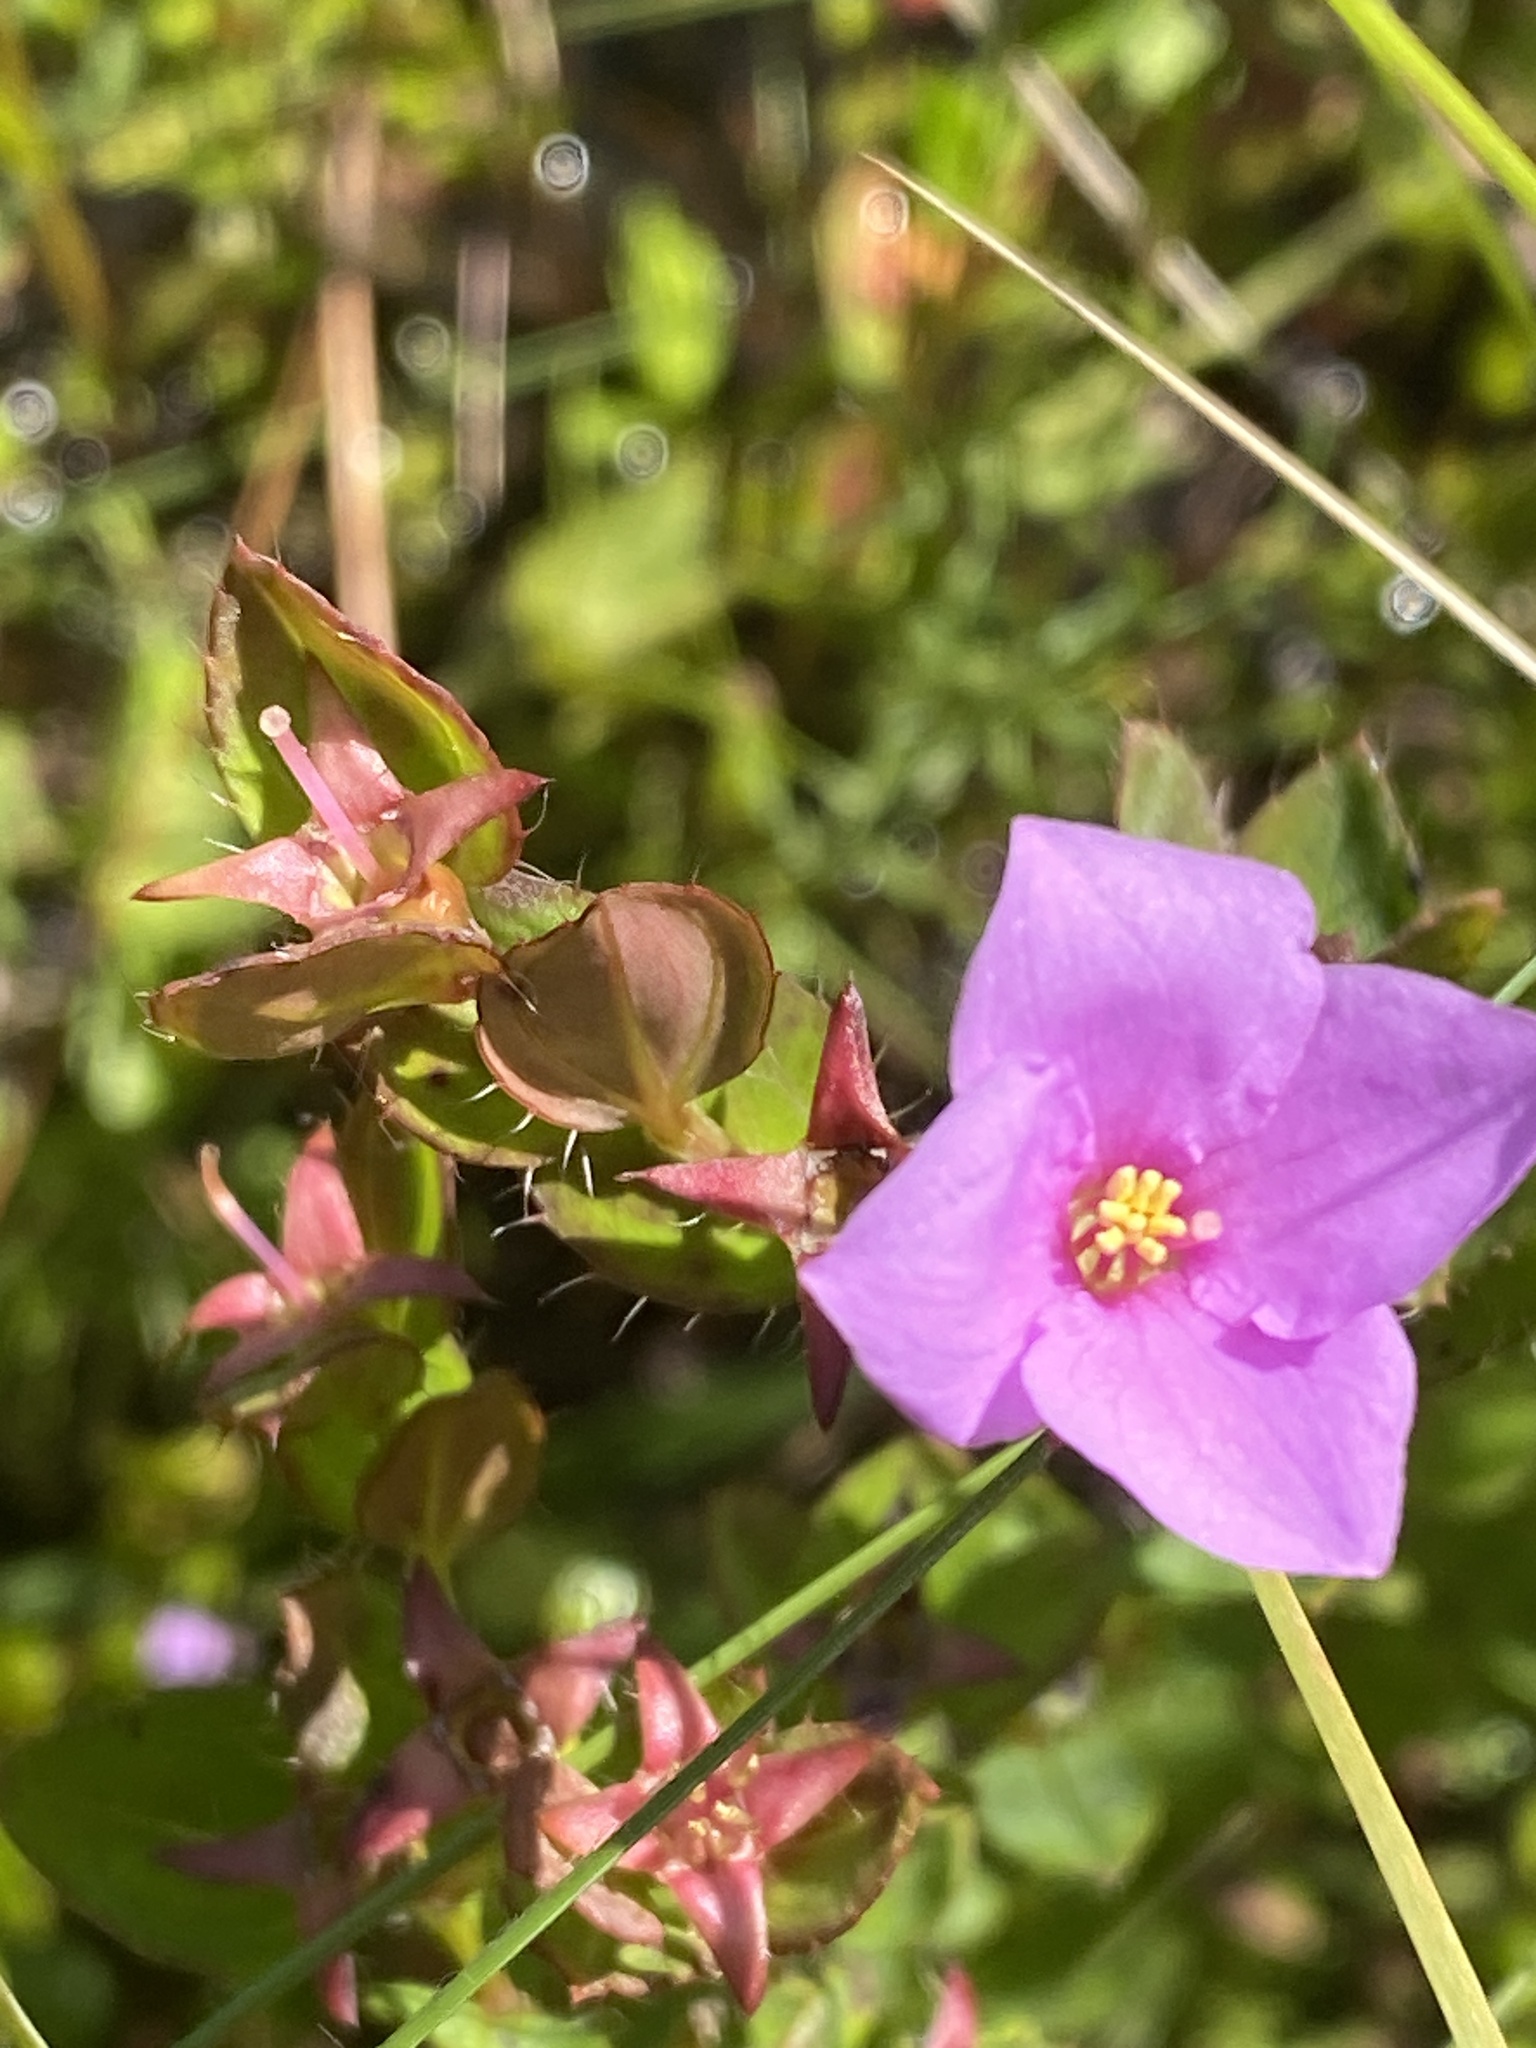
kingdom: Plantae
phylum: Tracheophyta
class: Magnoliopsida
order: Myrtales
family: Melastomataceae
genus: Rhexia
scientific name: Rhexia petiolata
